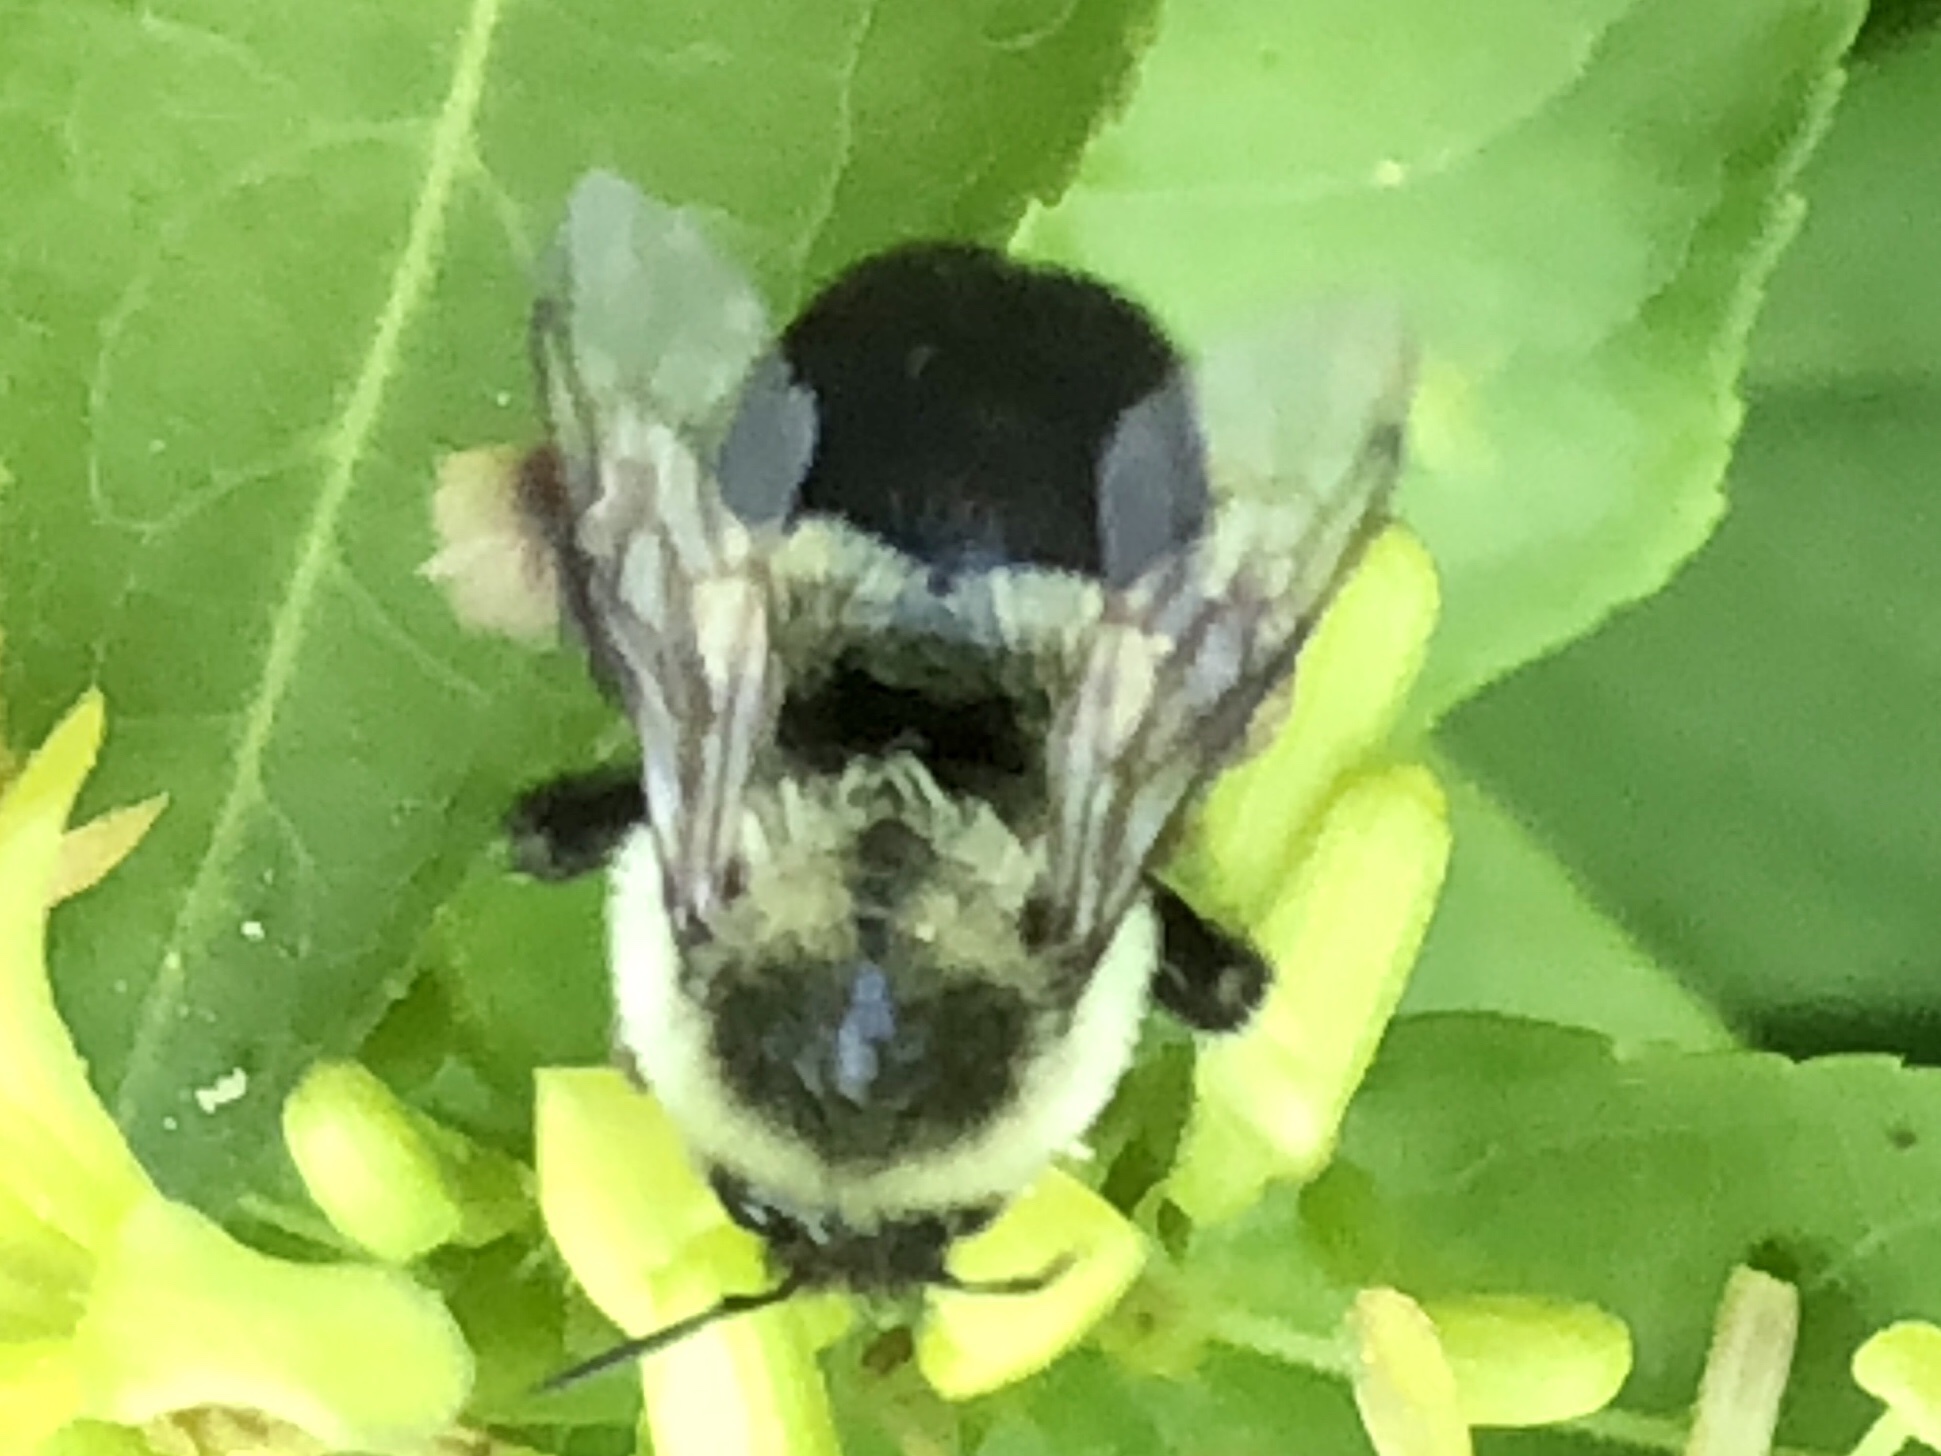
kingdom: Animalia
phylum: Arthropoda
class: Insecta
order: Hymenoptera
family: Apidae
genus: Bombus
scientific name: Bombus impatiens
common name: Common eastern bumble bee
